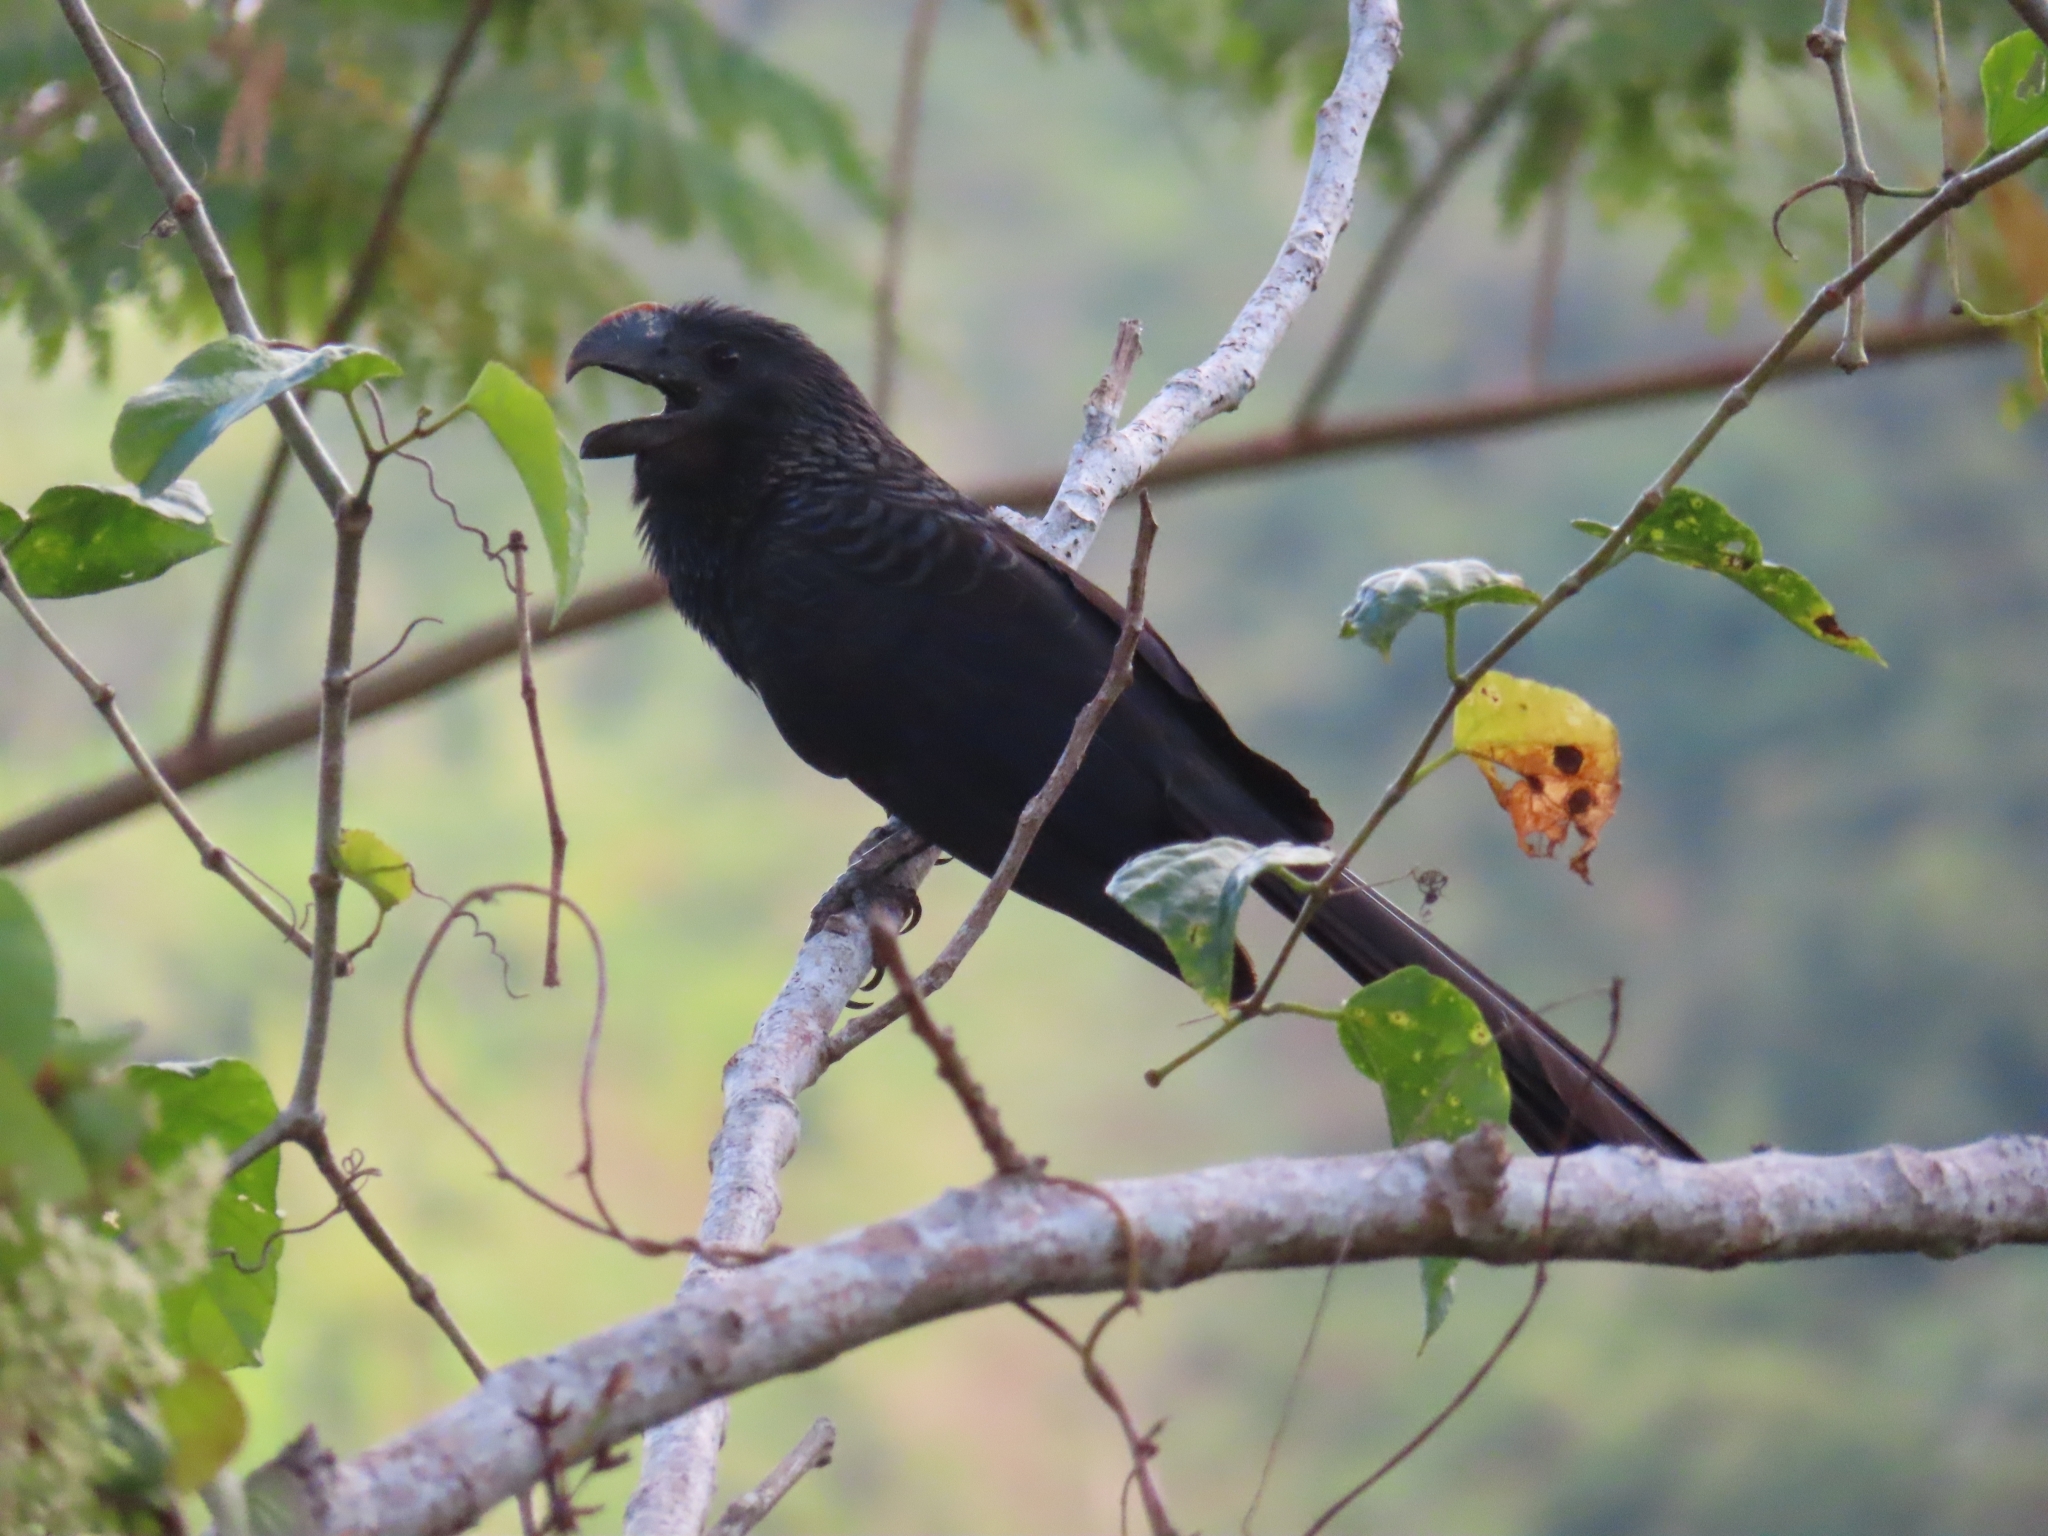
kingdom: Animalia
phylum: Chordata
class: Aves
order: Cuculiformes
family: Cuculidae
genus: Crotophaga
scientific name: Crotophaga ani
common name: Smooth-billed ani
